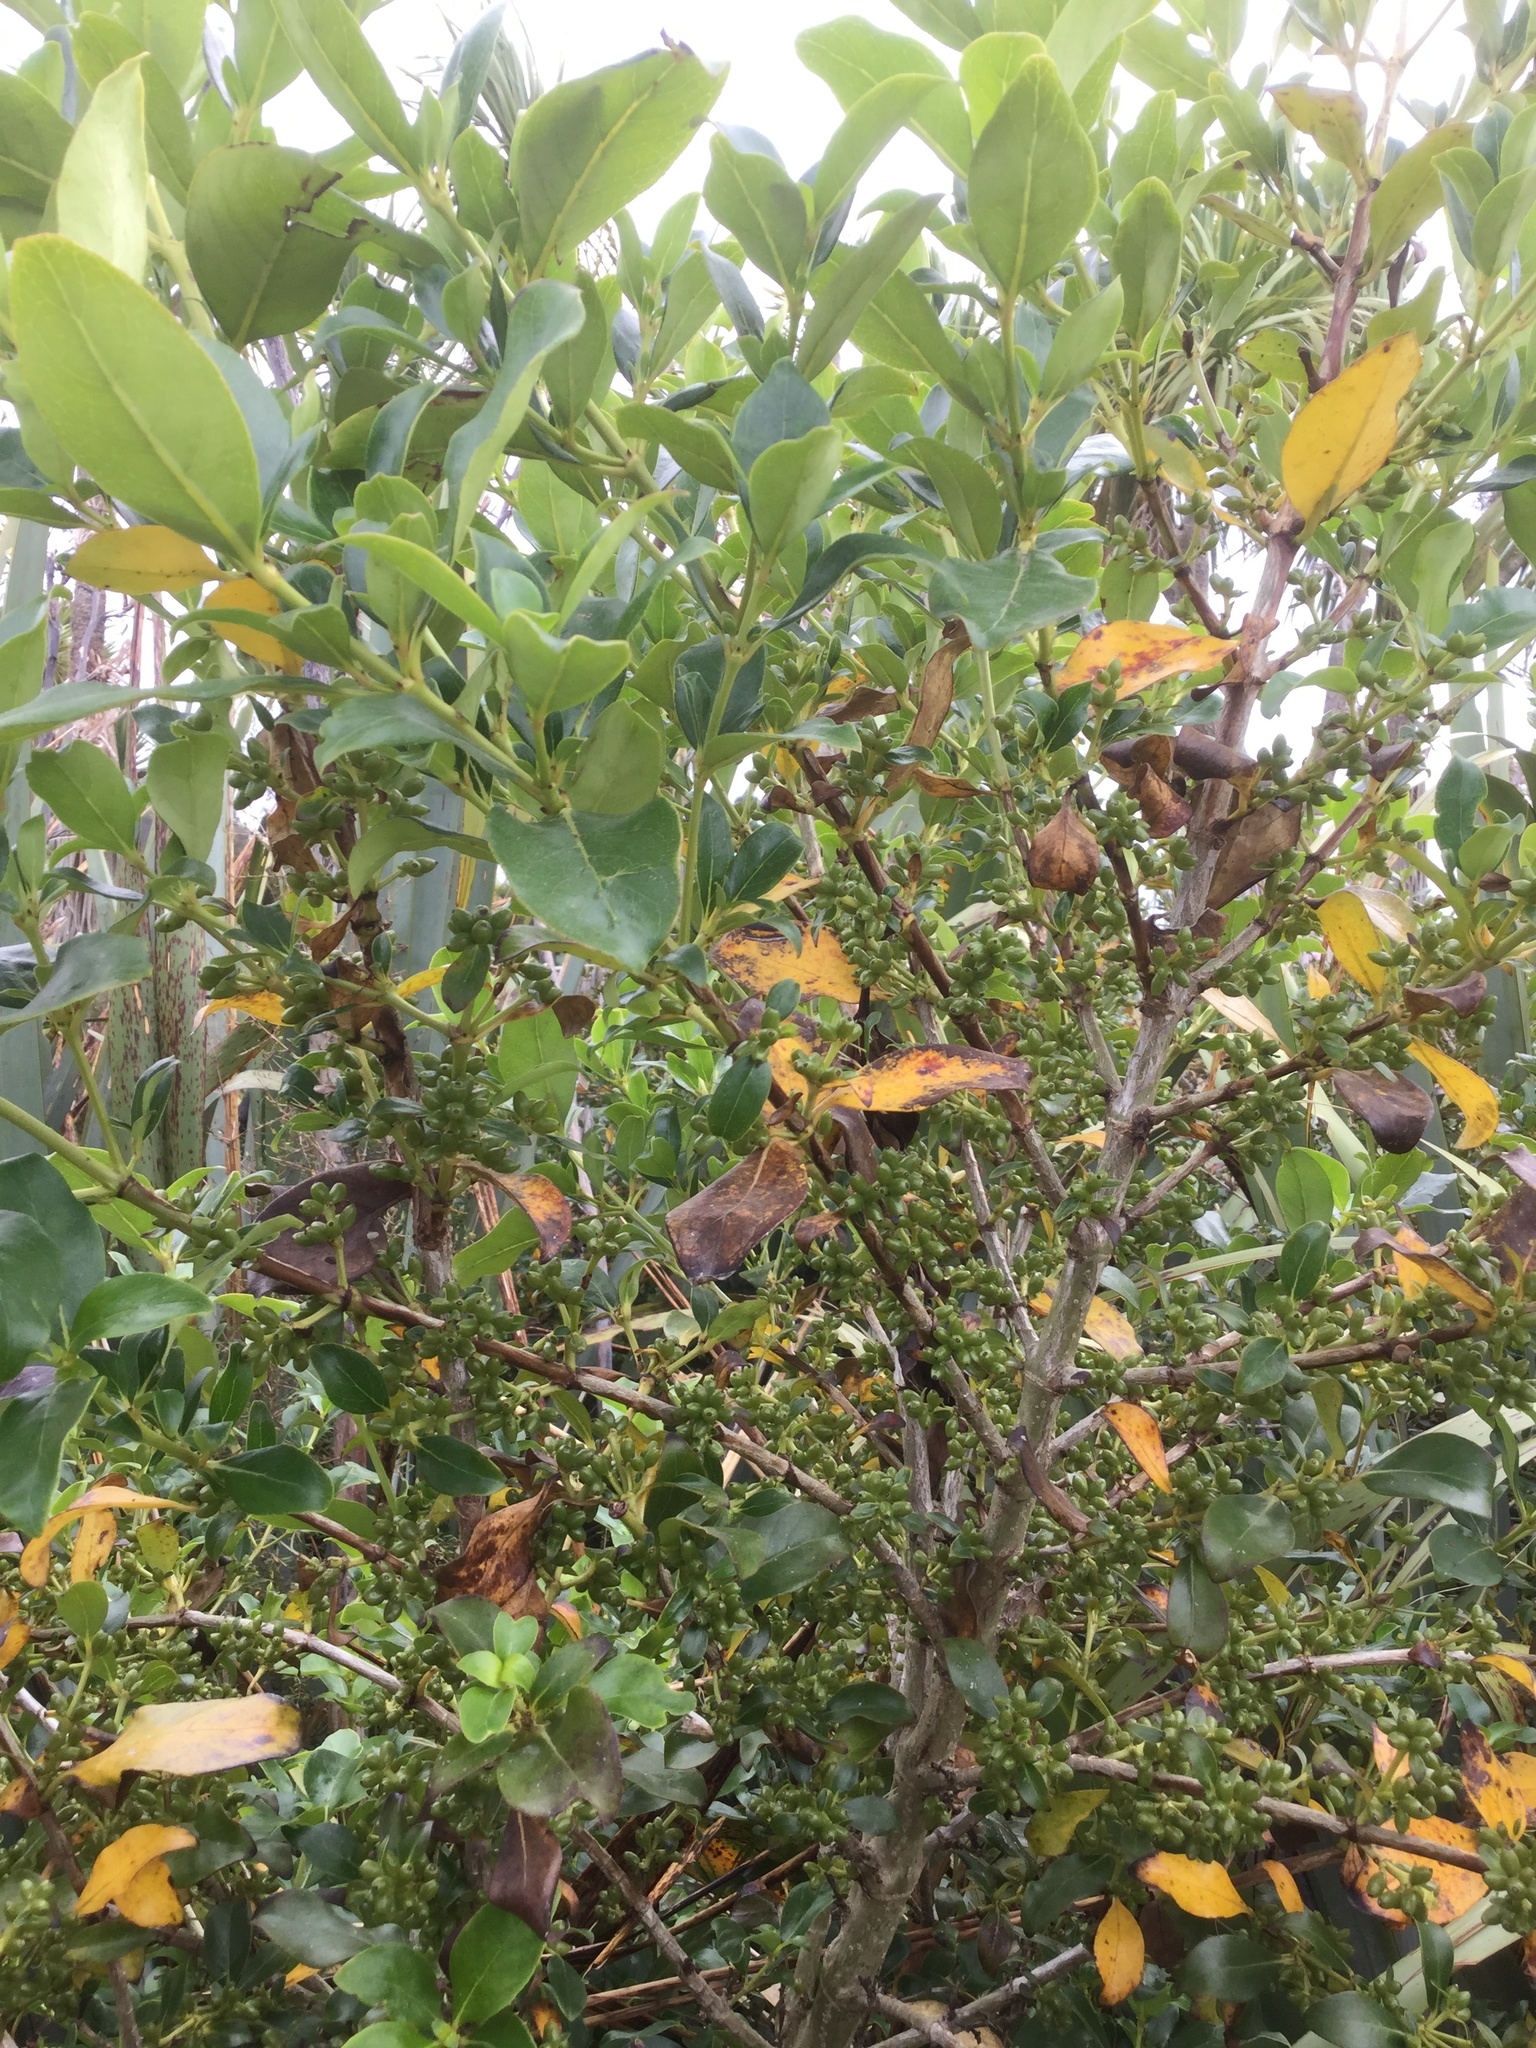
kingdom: Plantae
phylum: Tracheophyta
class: Magnoliopsida
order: Gentianales
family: Rubiaceae
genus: Coprosma
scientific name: Coprosma robusta
